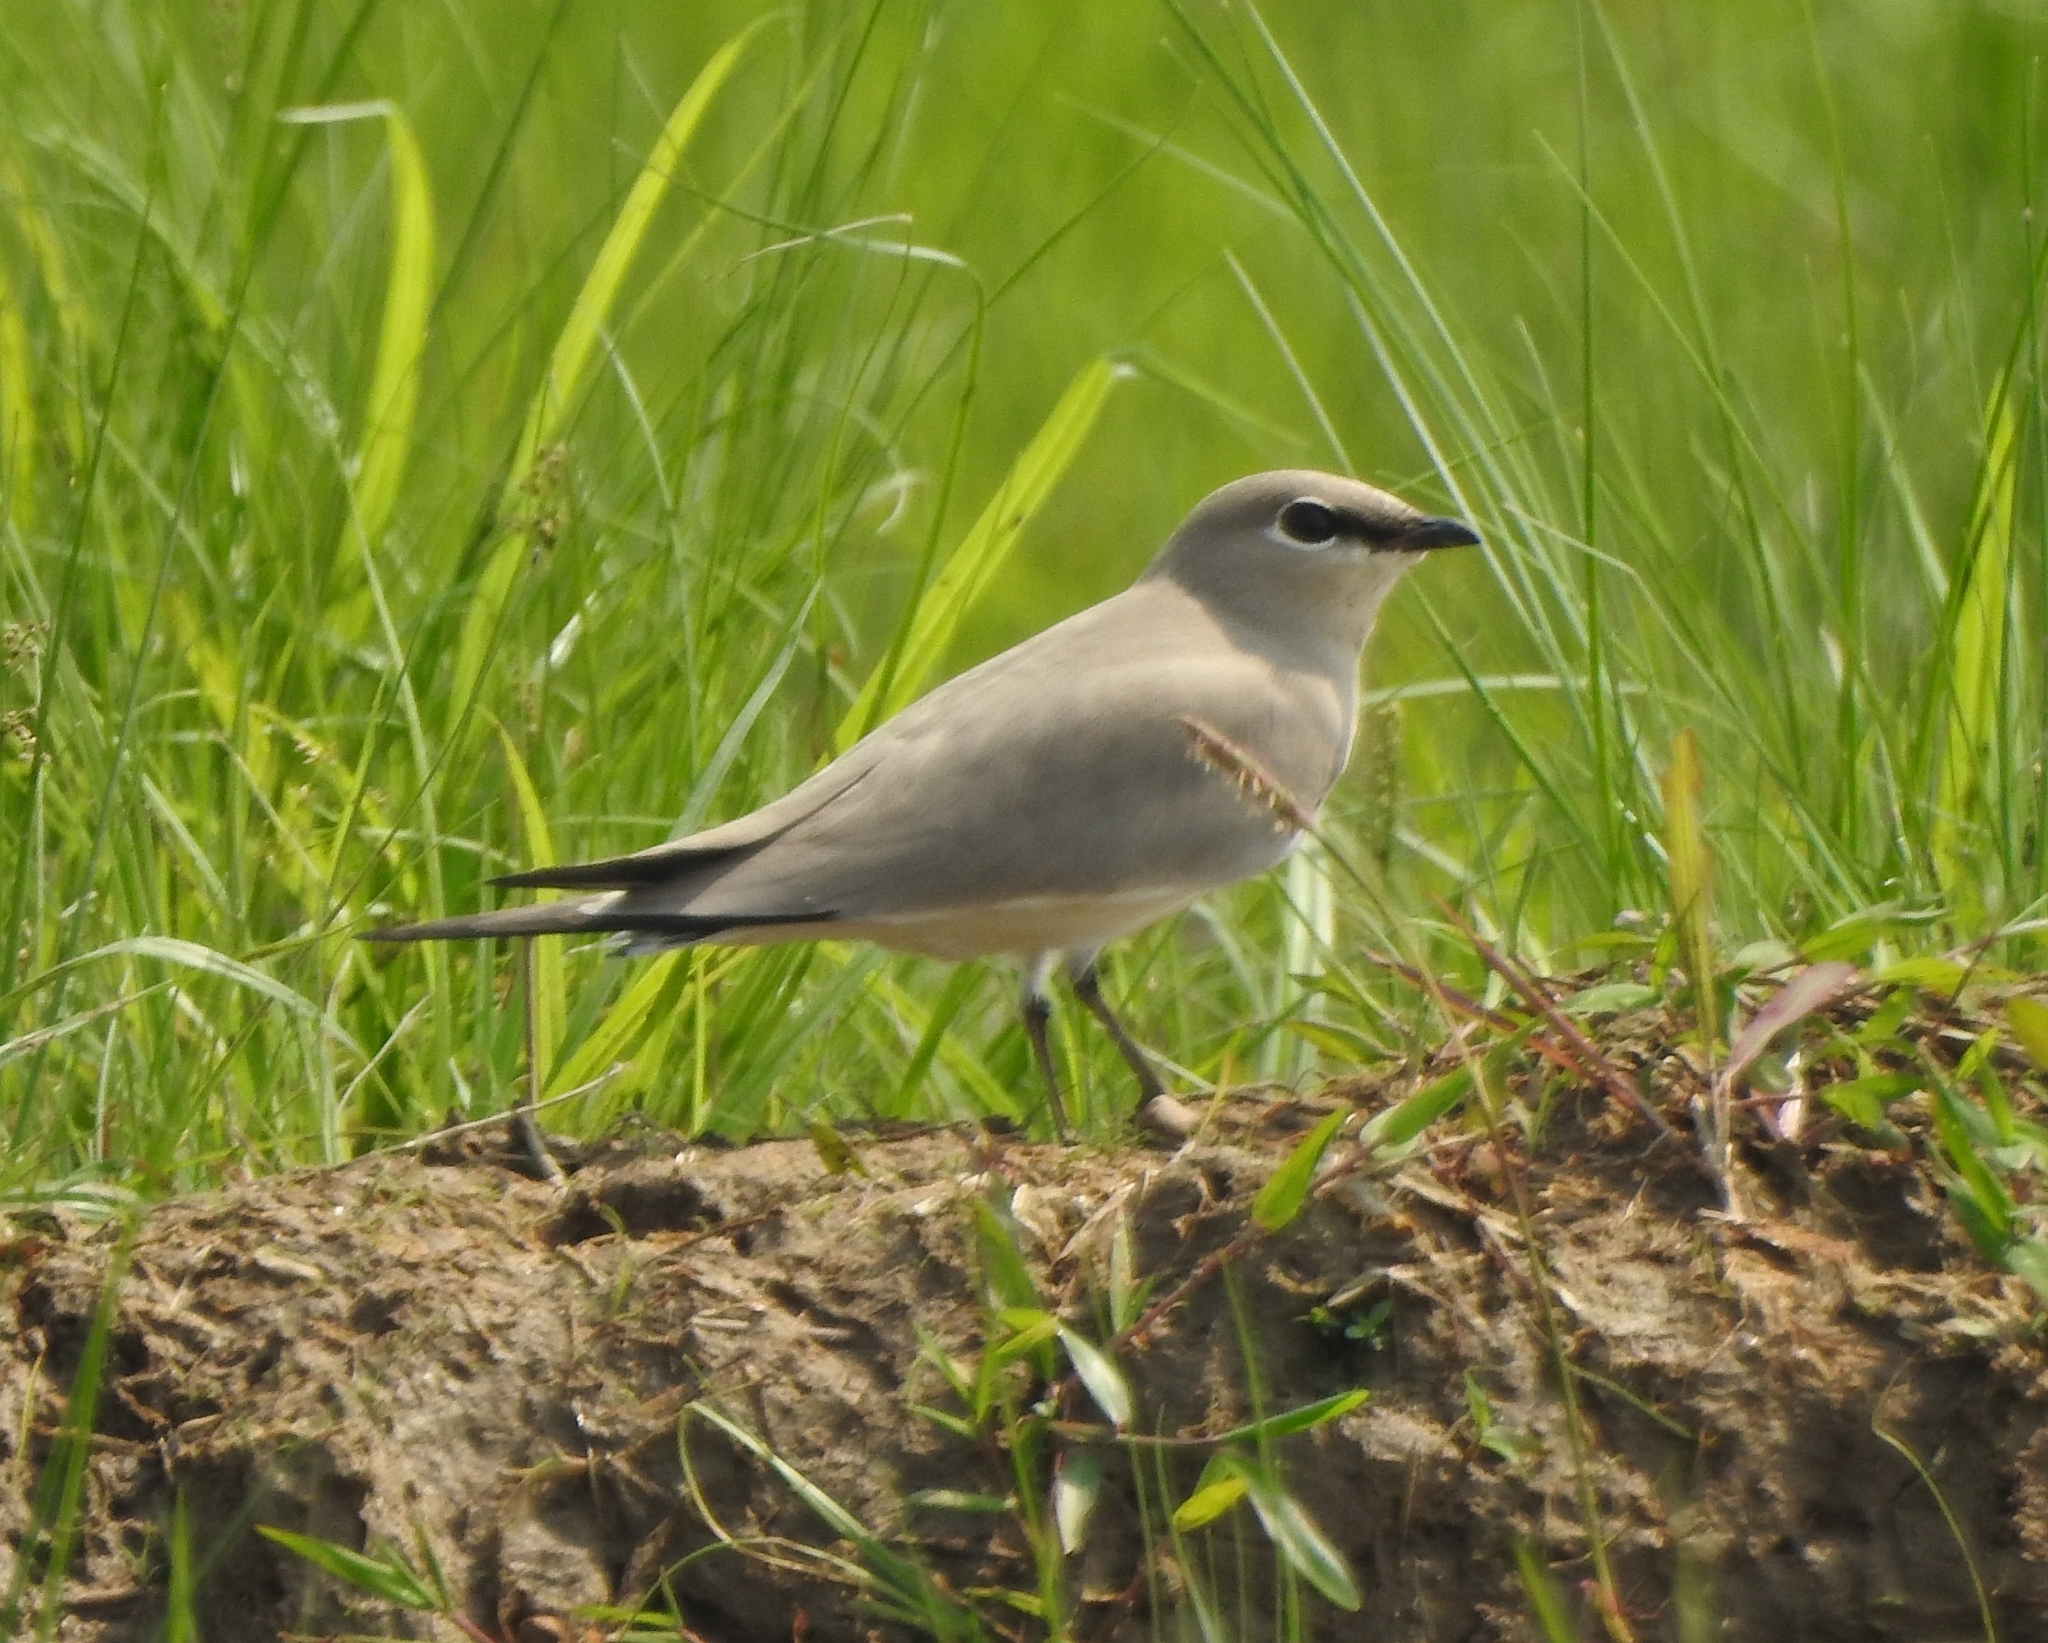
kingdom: Animalia
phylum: Chordata
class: Aves
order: Charadriiformes
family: Glareolidae
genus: Glareola
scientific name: Glareola lactea
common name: Small pratincole
